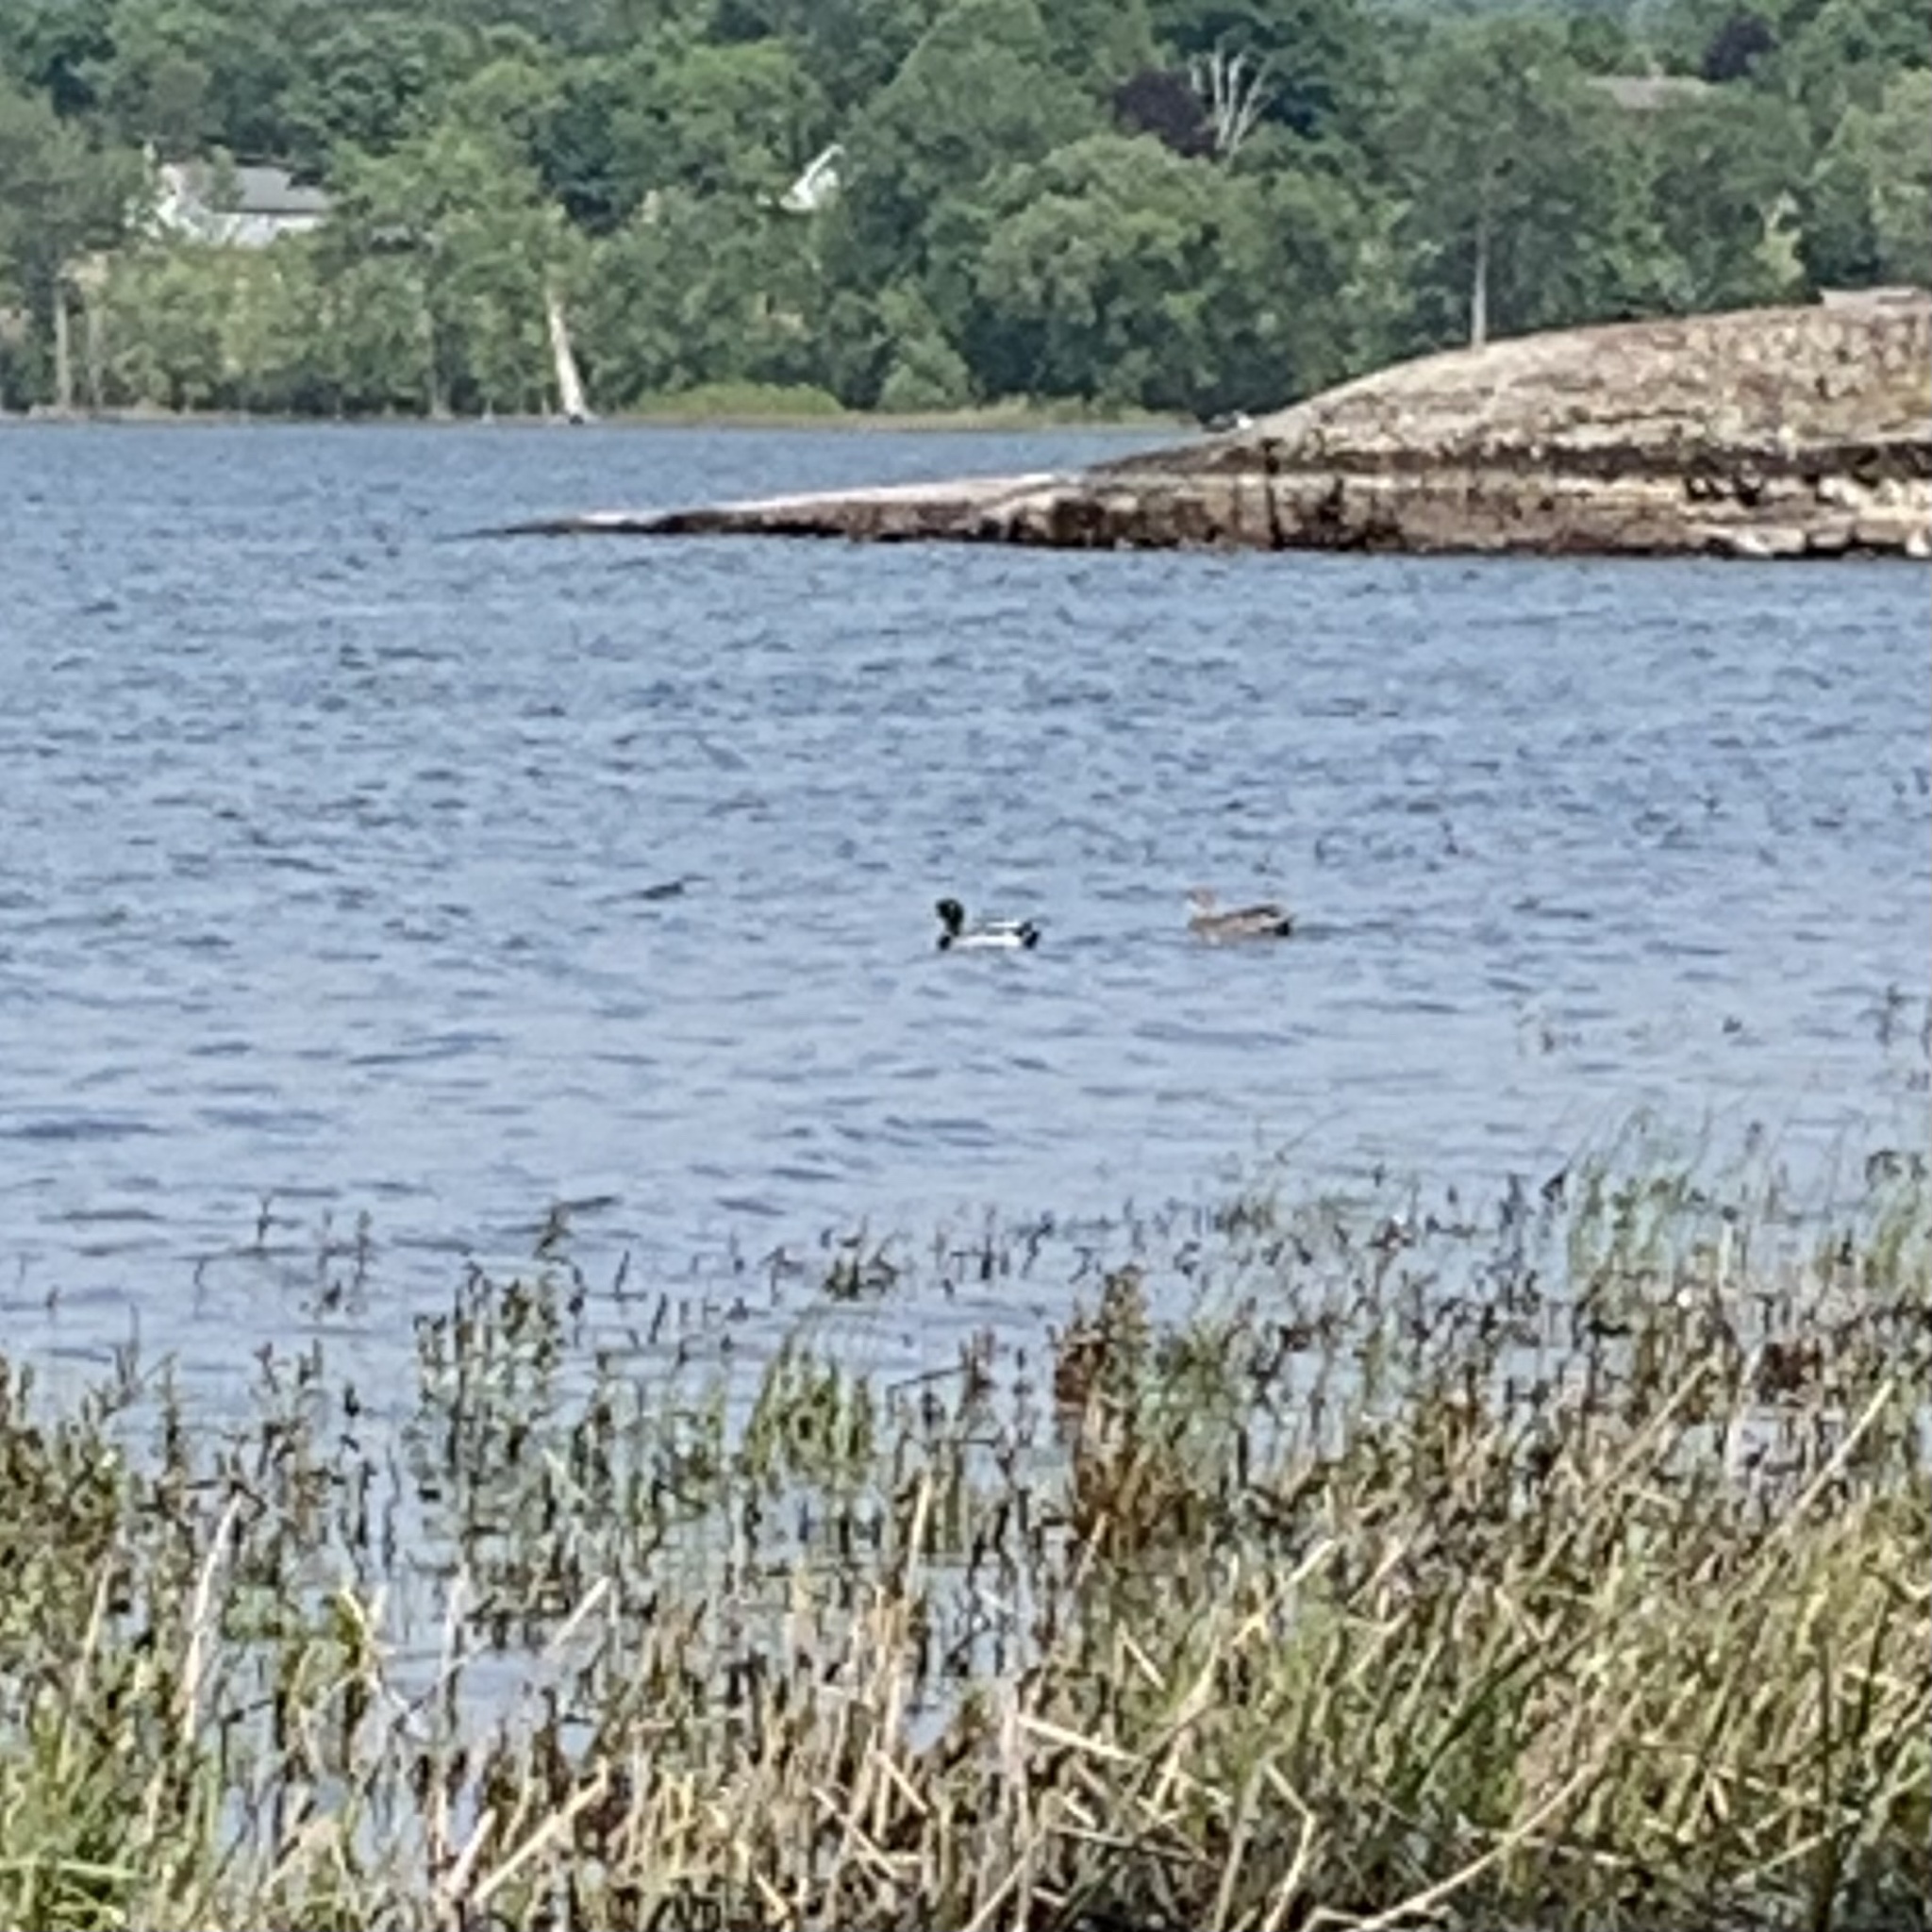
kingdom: Animalia
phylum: Chordata
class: Aves
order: Anseriformes
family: Anatidae
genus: Anas
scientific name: Anas platyrhynchos
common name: Mallard
